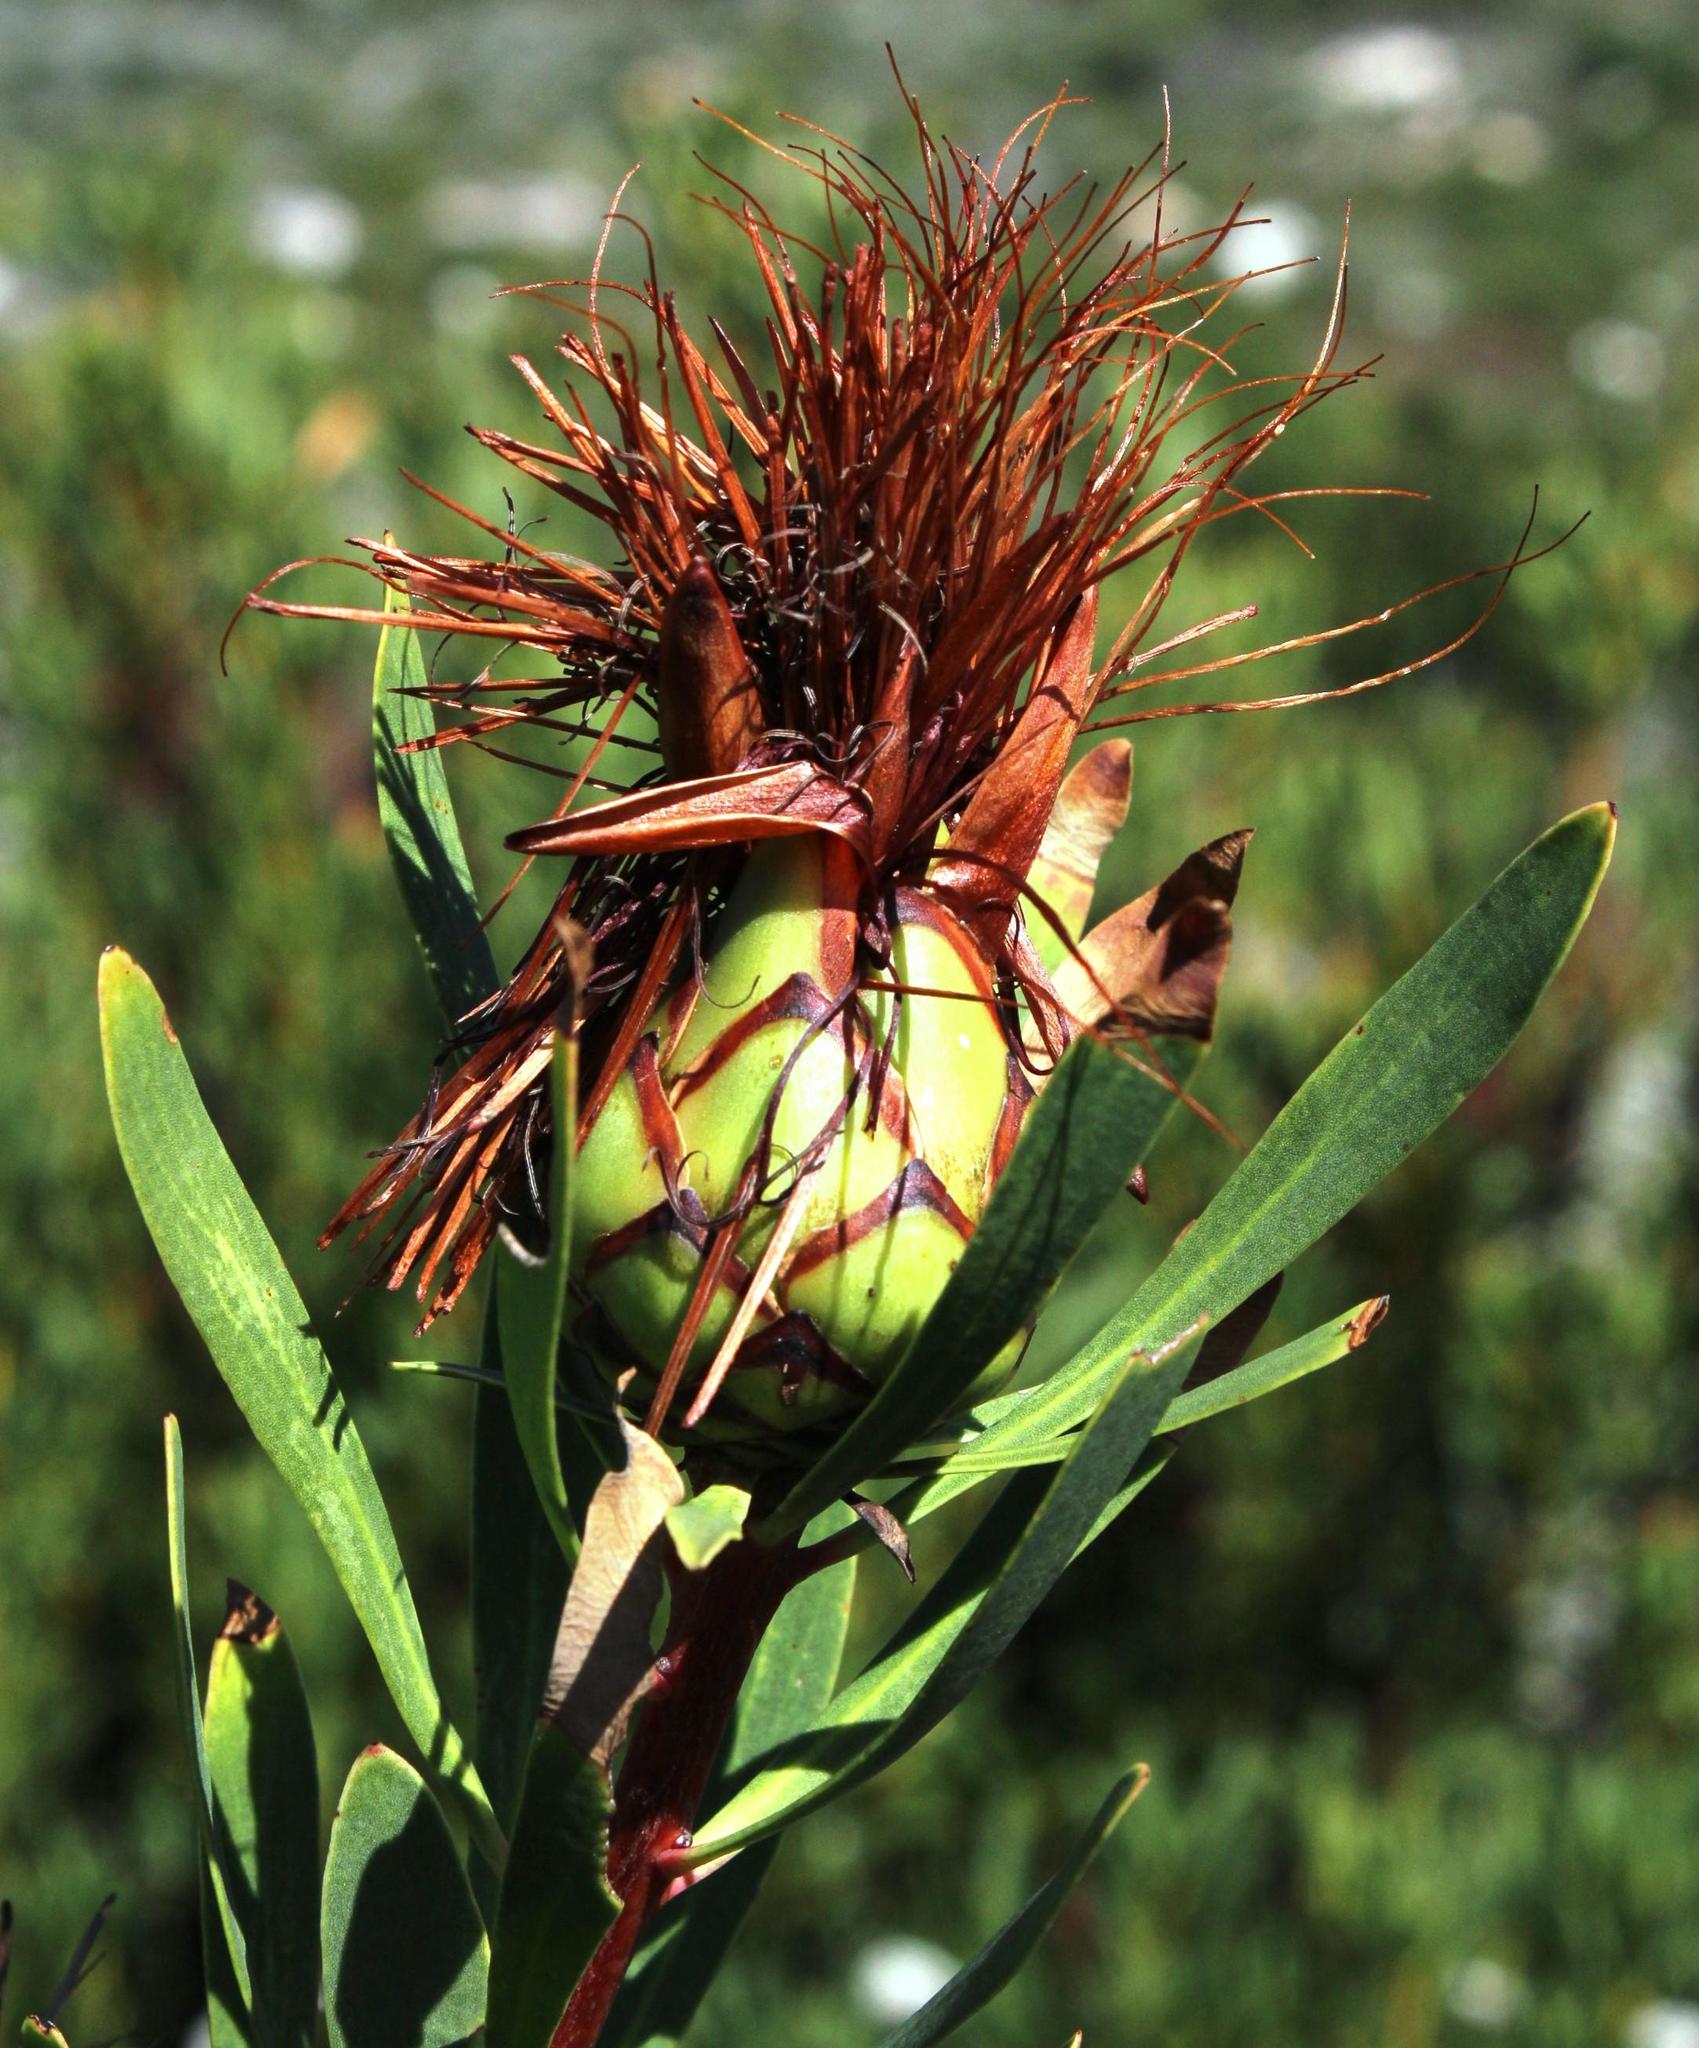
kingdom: Plantae
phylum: Tracheophyta
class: Magnoliopsida
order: Proteales
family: Proteaceae
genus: Protea
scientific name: Protea lanceolata
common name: Lance-leaved protea
